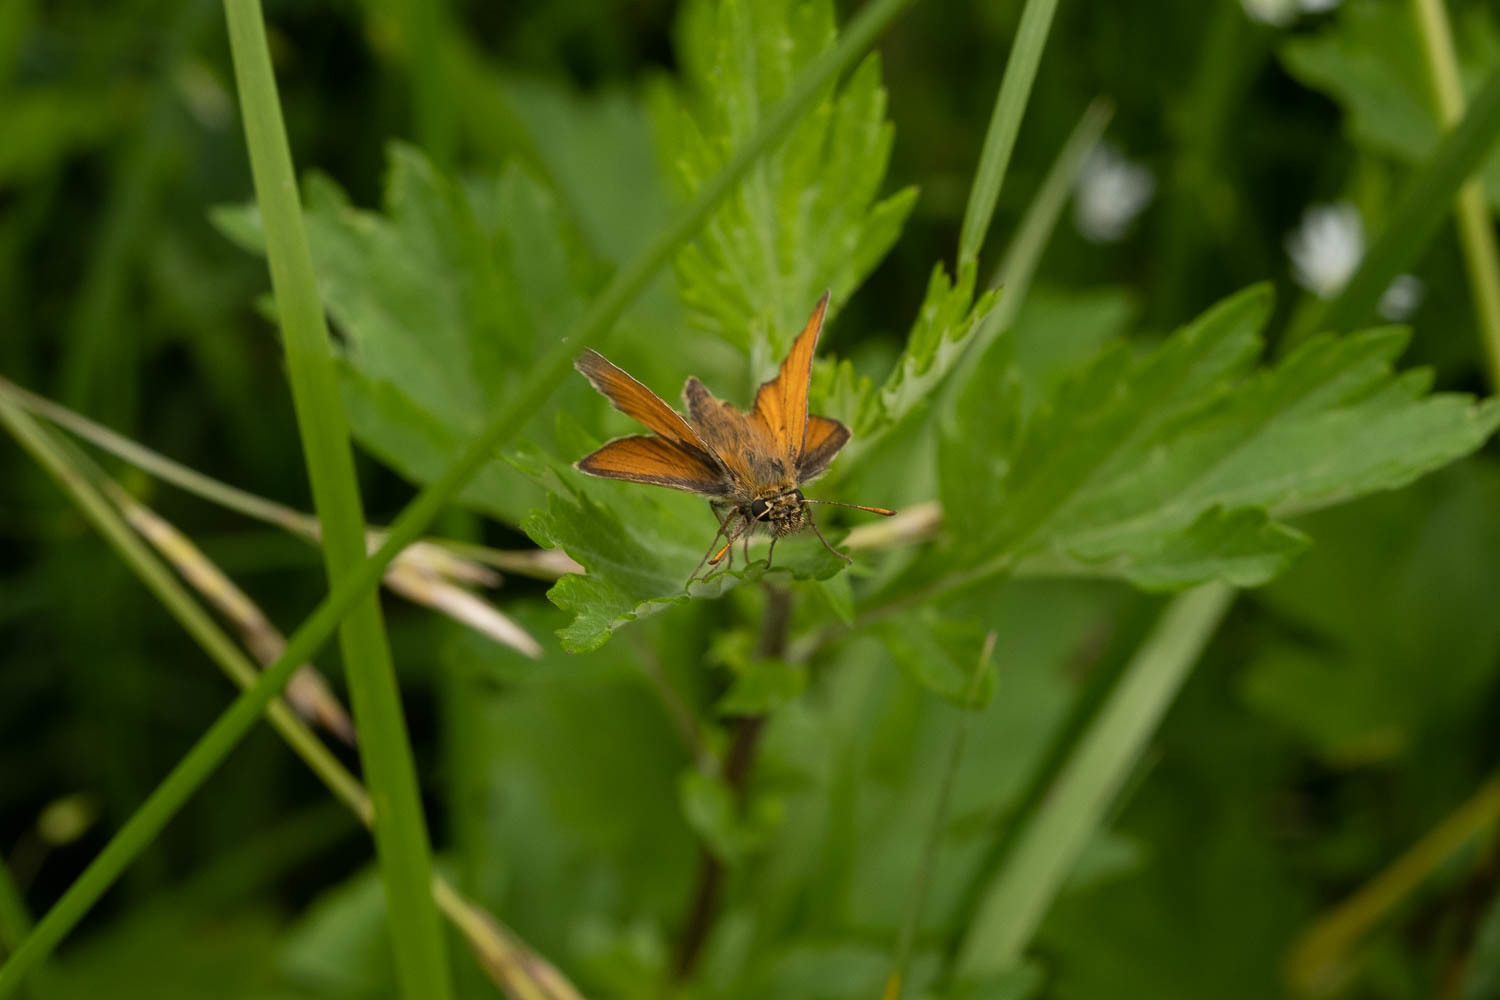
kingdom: Animalia
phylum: Arthropoda
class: Insecta
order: Lepidoptera
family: Hesperiidae
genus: Thymelicus
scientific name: Thymelicus sylvestris
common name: Small skipper
